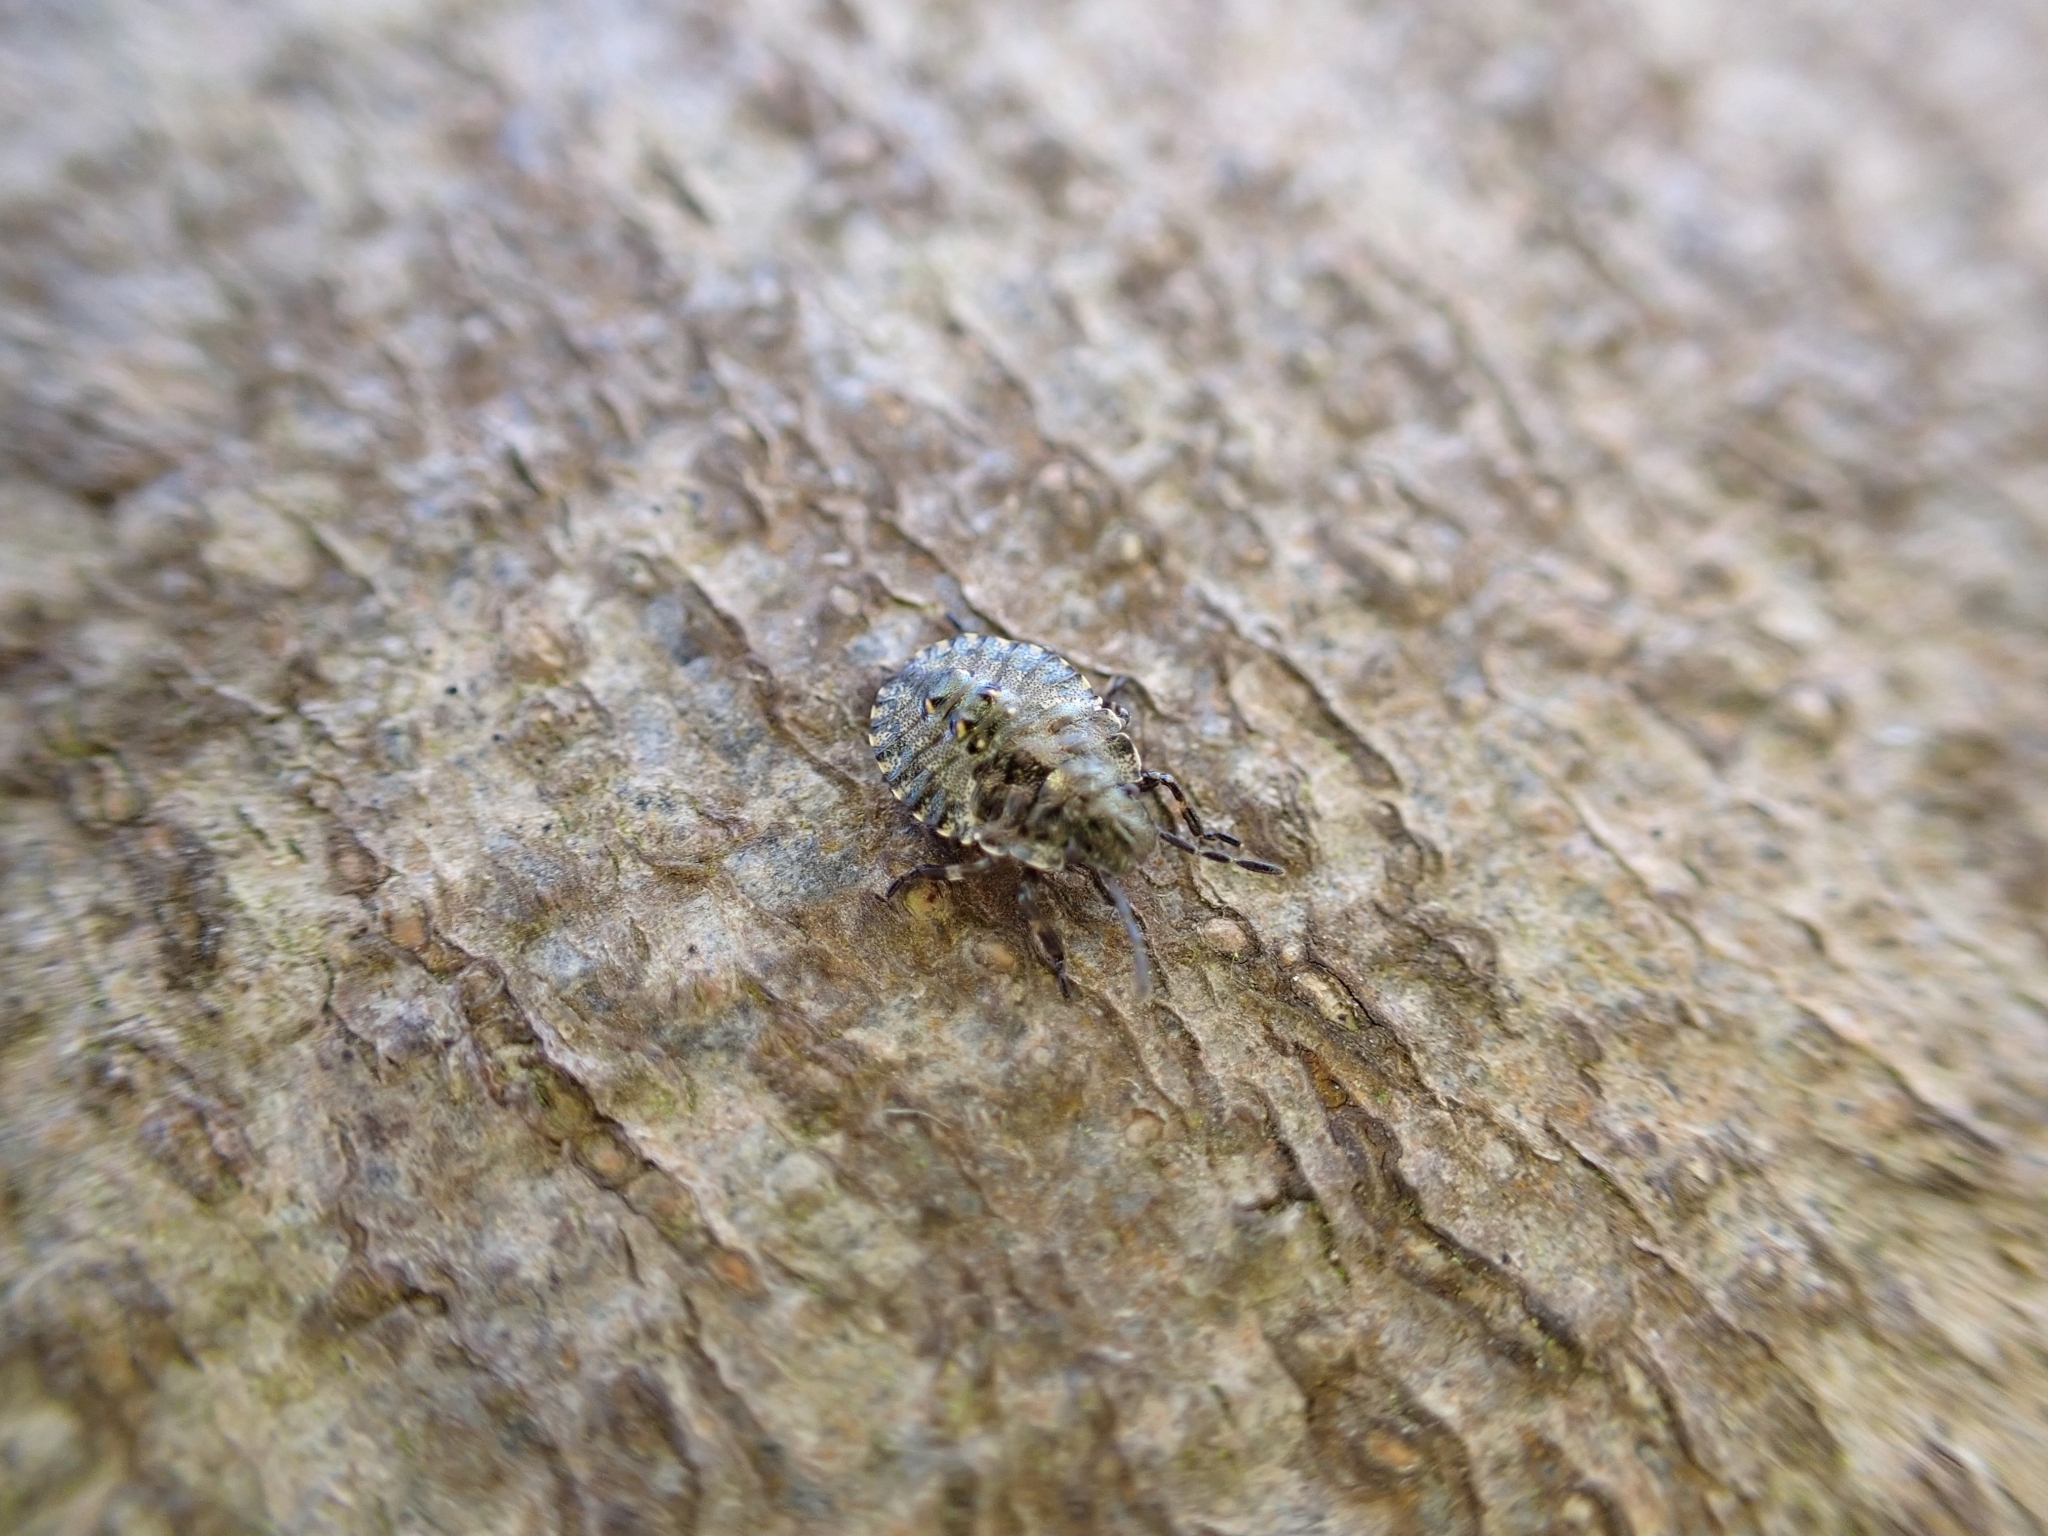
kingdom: Animalia
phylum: Arthropoda
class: Insecta
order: Hemiptera
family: Pentatomidae
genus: Pentatoma
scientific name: Pentatoma rufipes
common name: Forest bug
